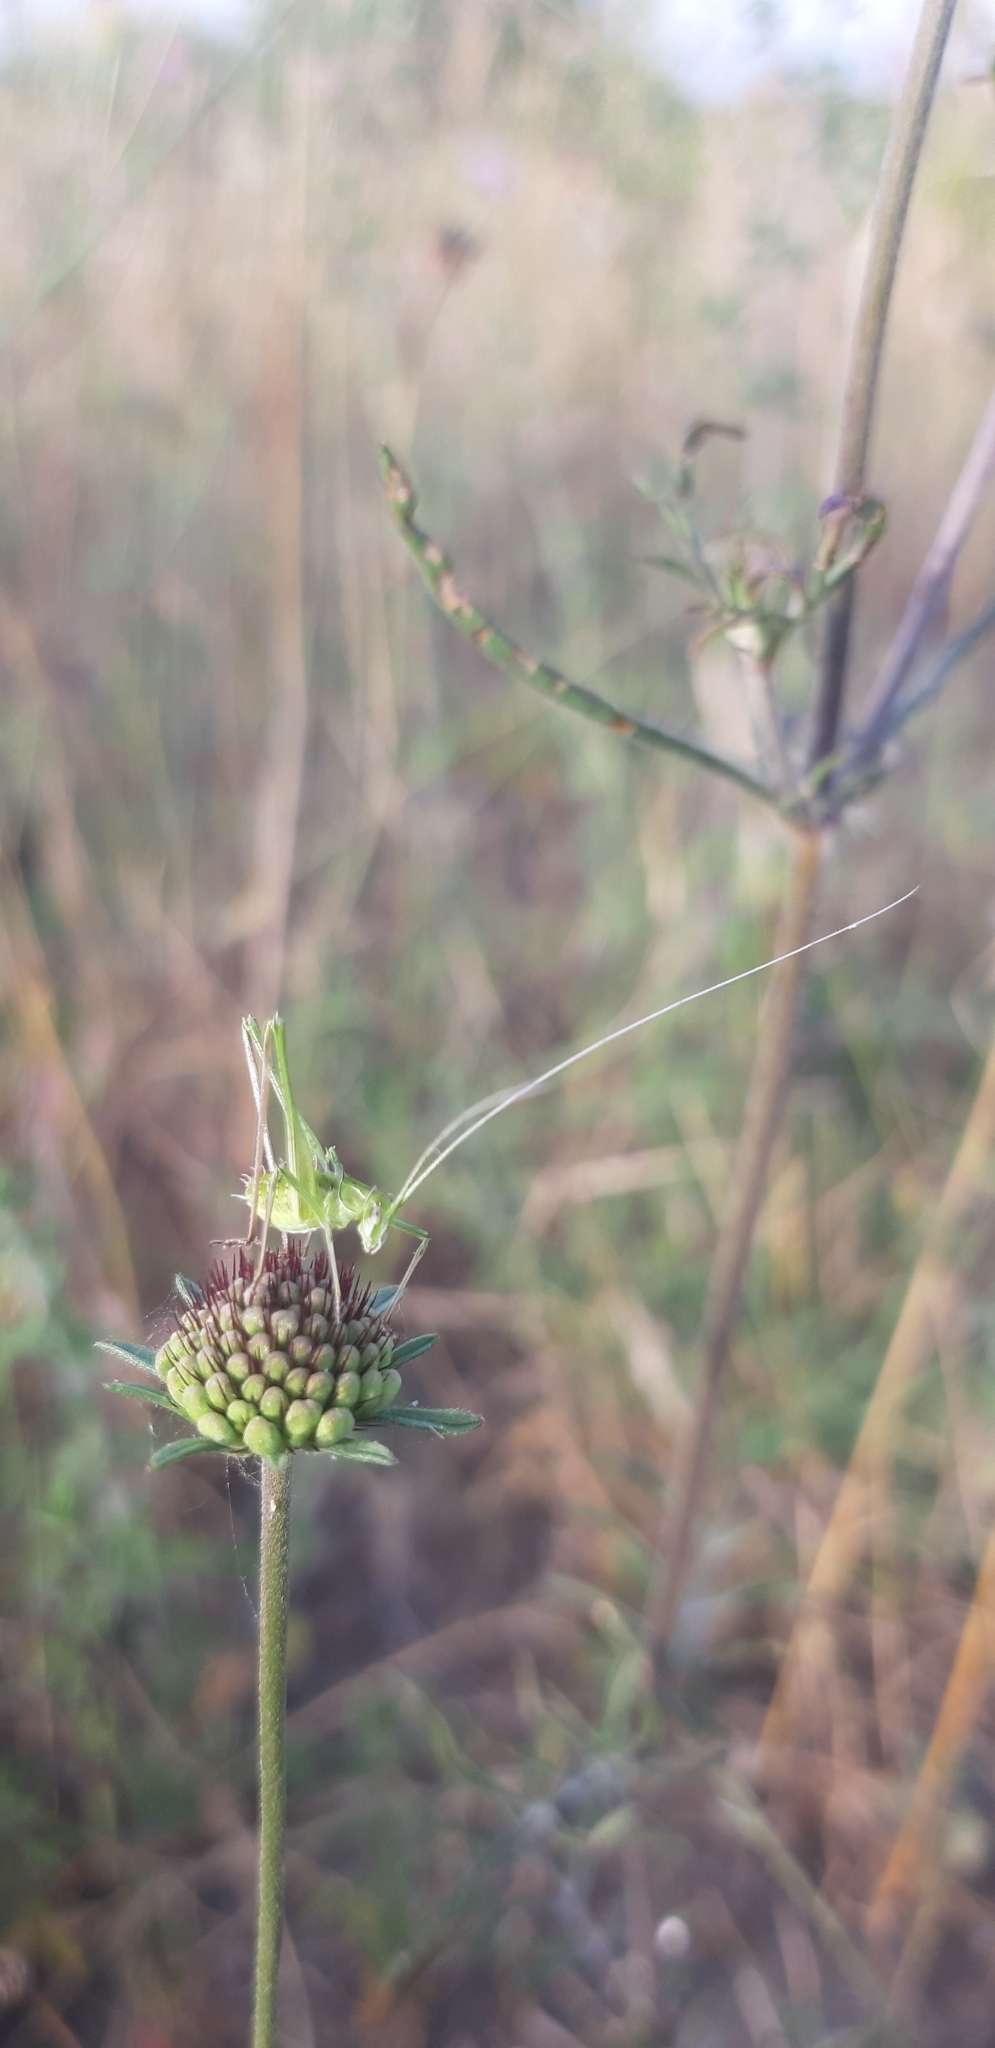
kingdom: Animalia
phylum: Arthropoda
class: Insecta
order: Orthoptera
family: Tettigoniidae
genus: Tylopsis
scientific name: Tylopsis lilifolia
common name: Lily bush-cricket
